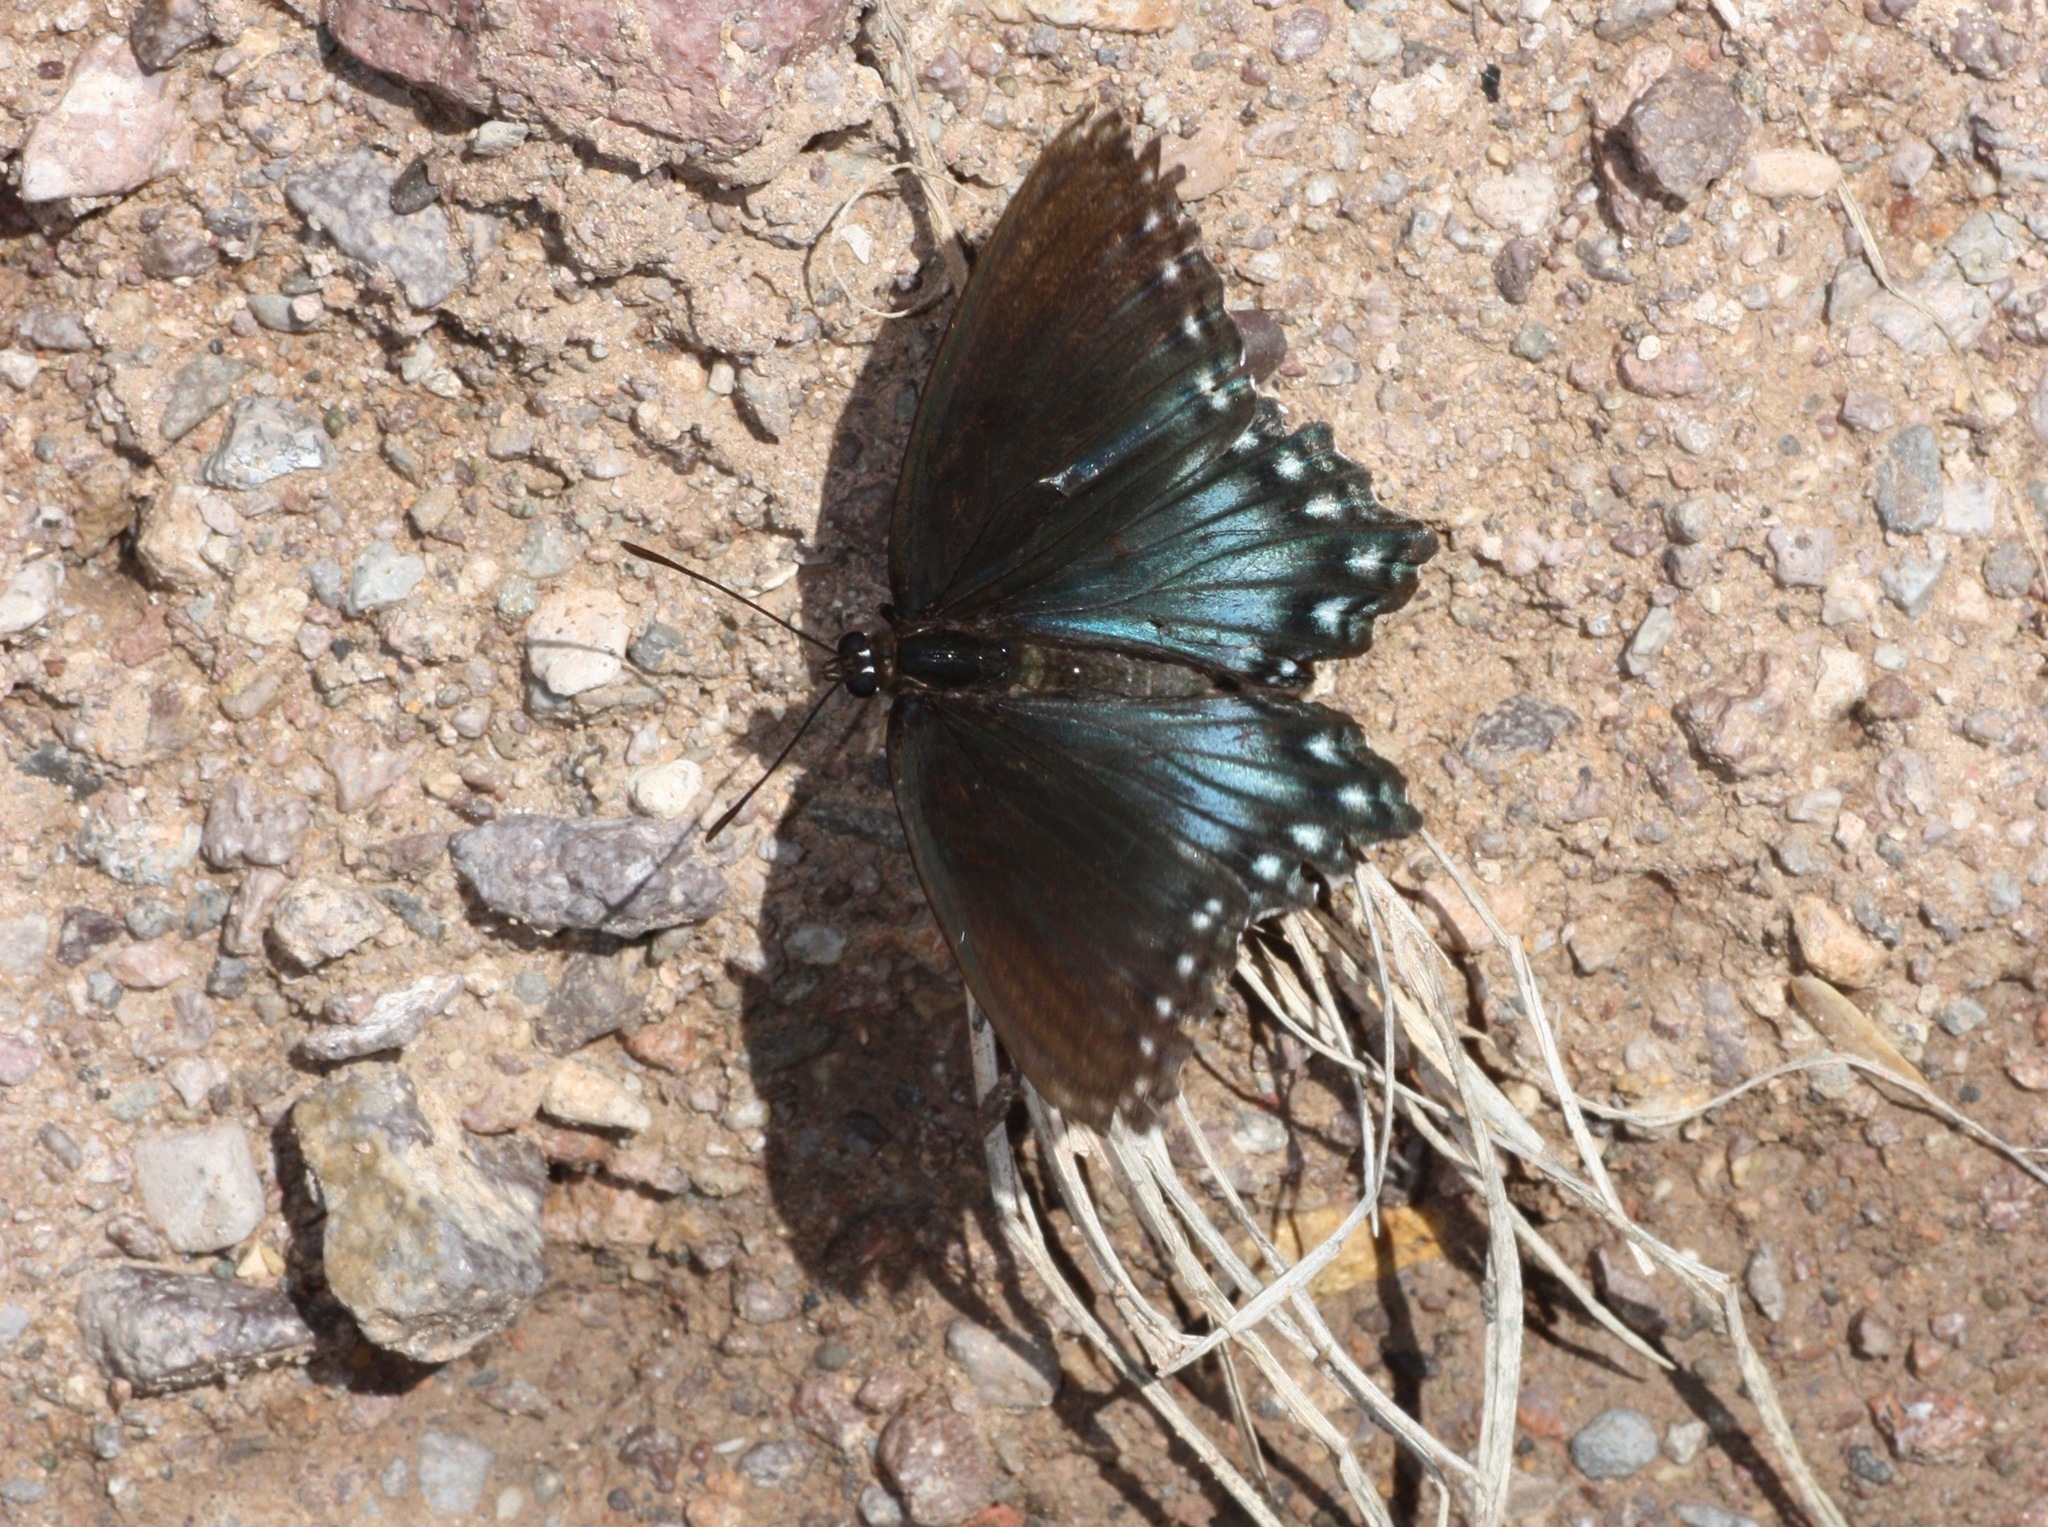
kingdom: Animalia
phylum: Arthropoda
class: Insecta
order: Lepidoptera
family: Nymphalidae
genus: Limenitis
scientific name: Limenitis arthemis
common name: Red-spotted admiral
